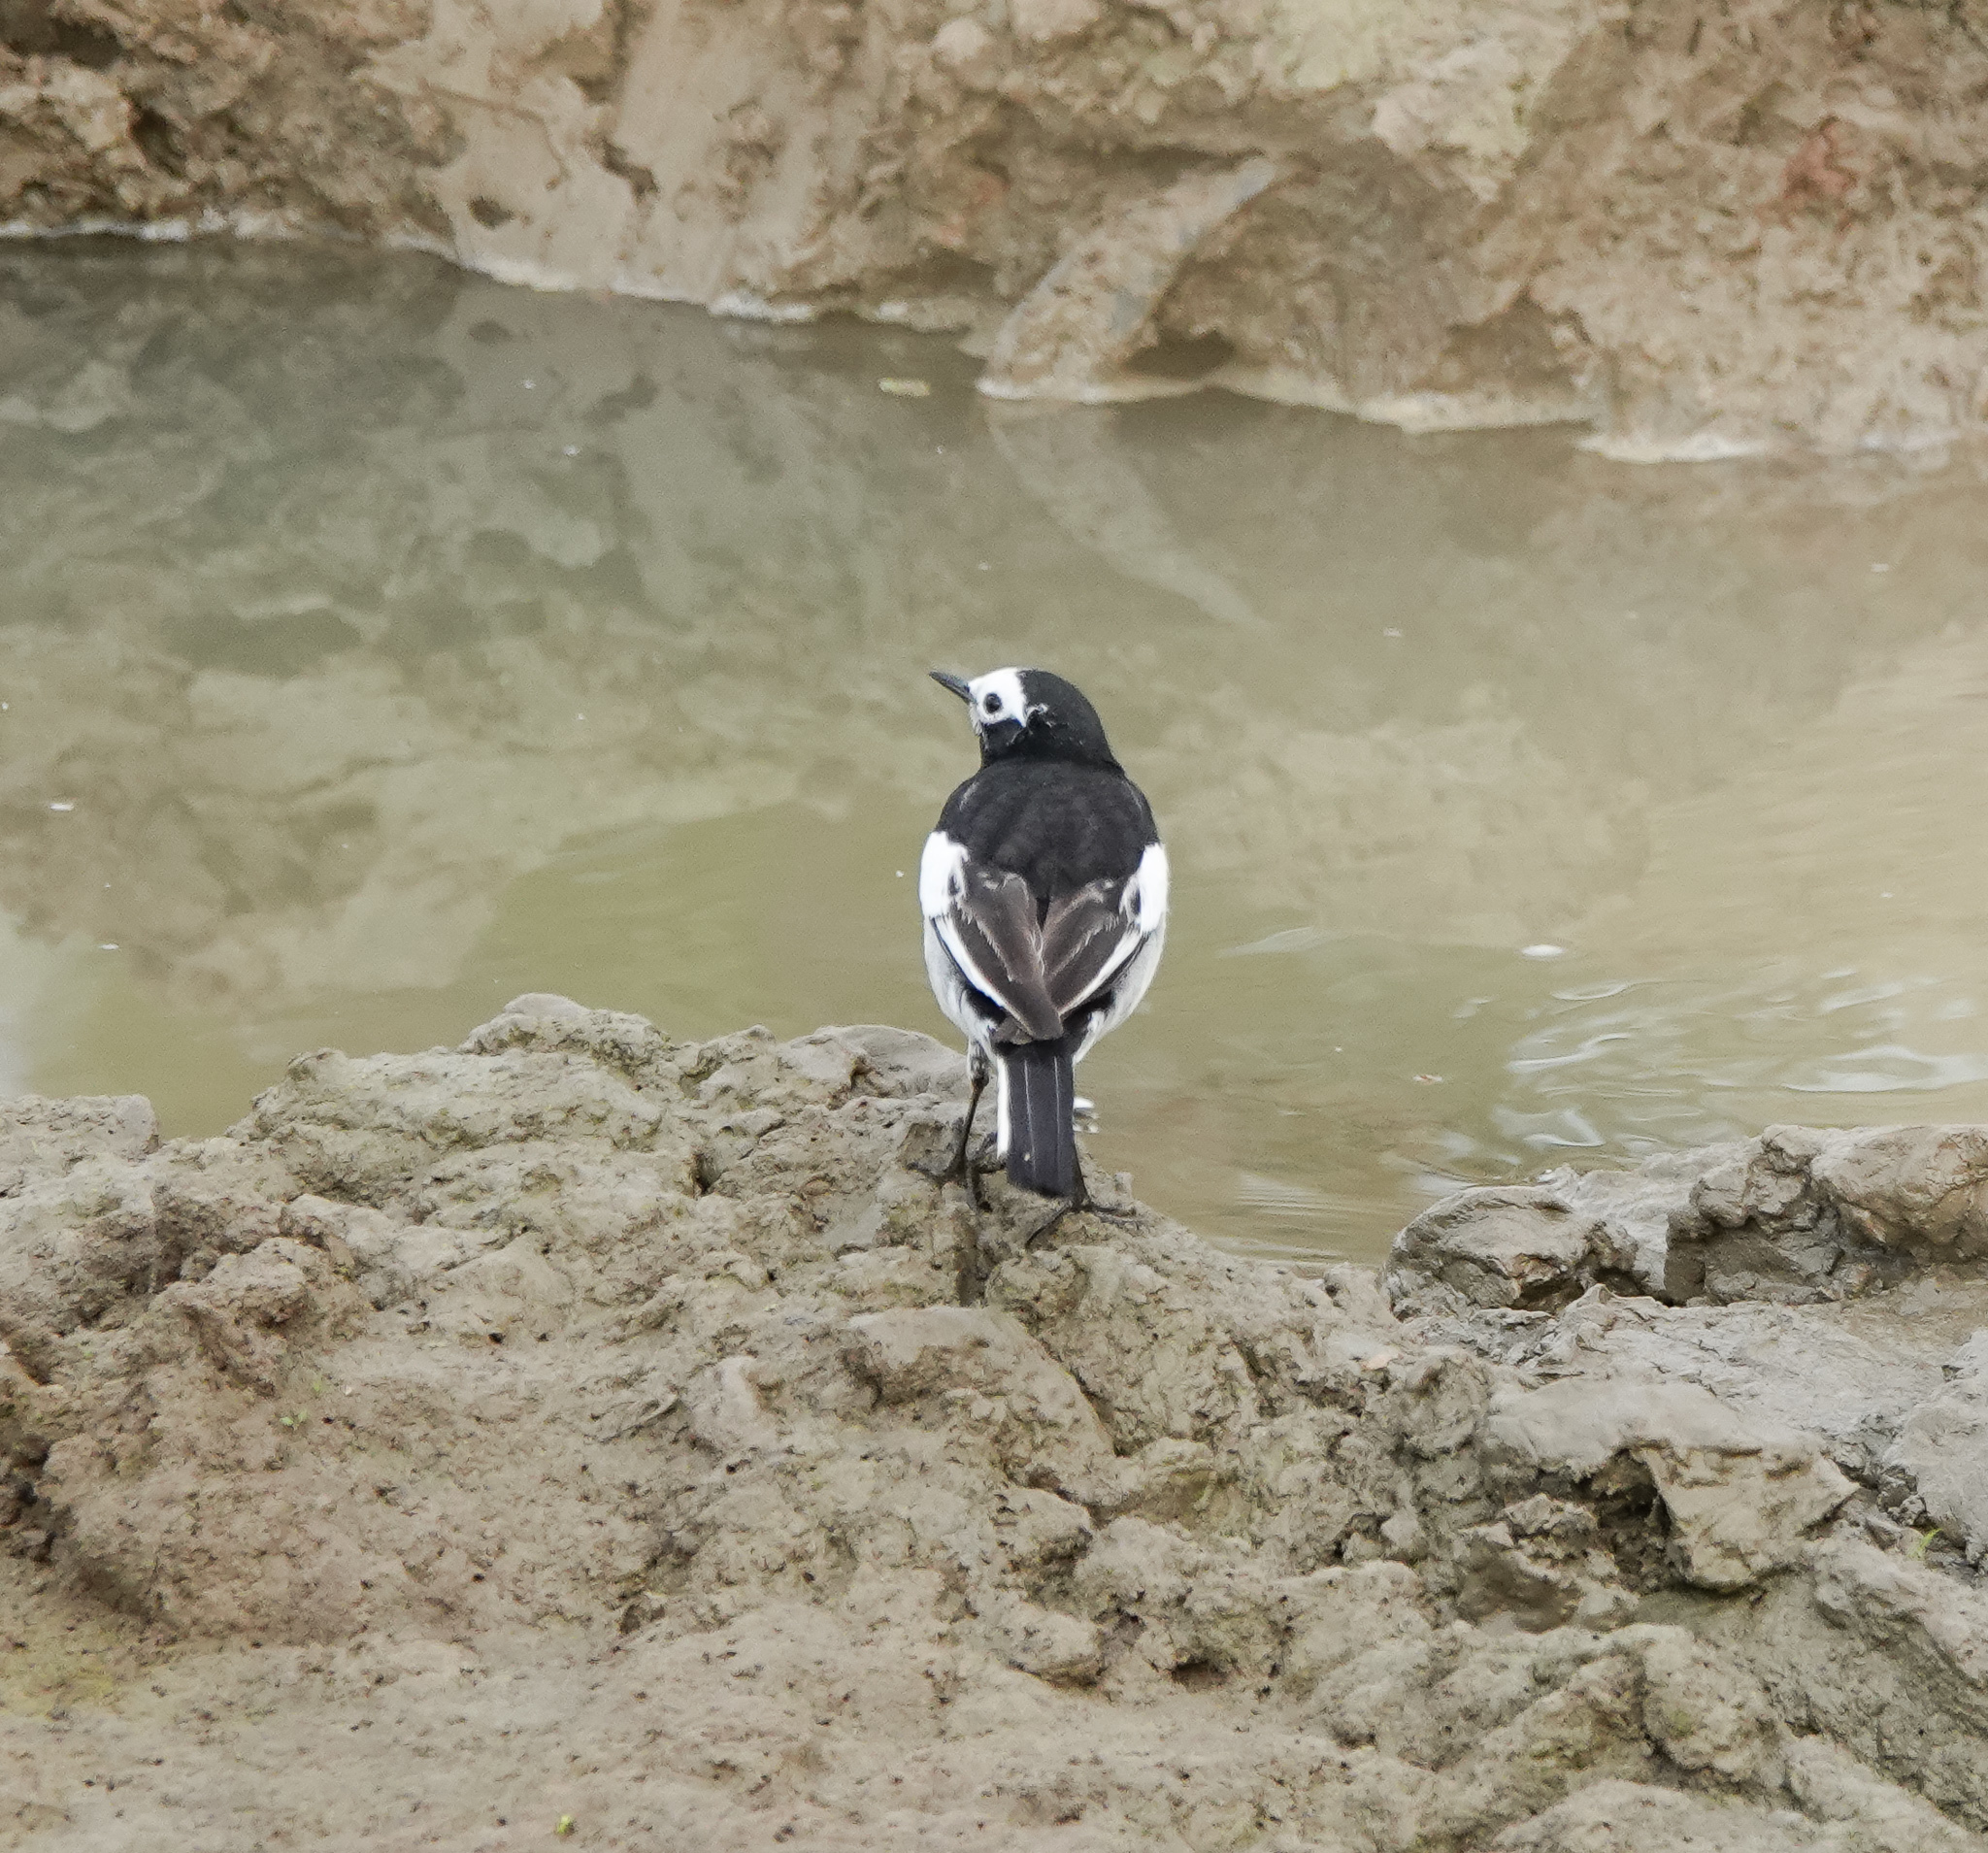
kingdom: Animalia
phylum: Chordata
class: Aves
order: Passeriformes
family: Motacillidae
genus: Motacilla
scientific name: Motacilla alba
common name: White wagtail
